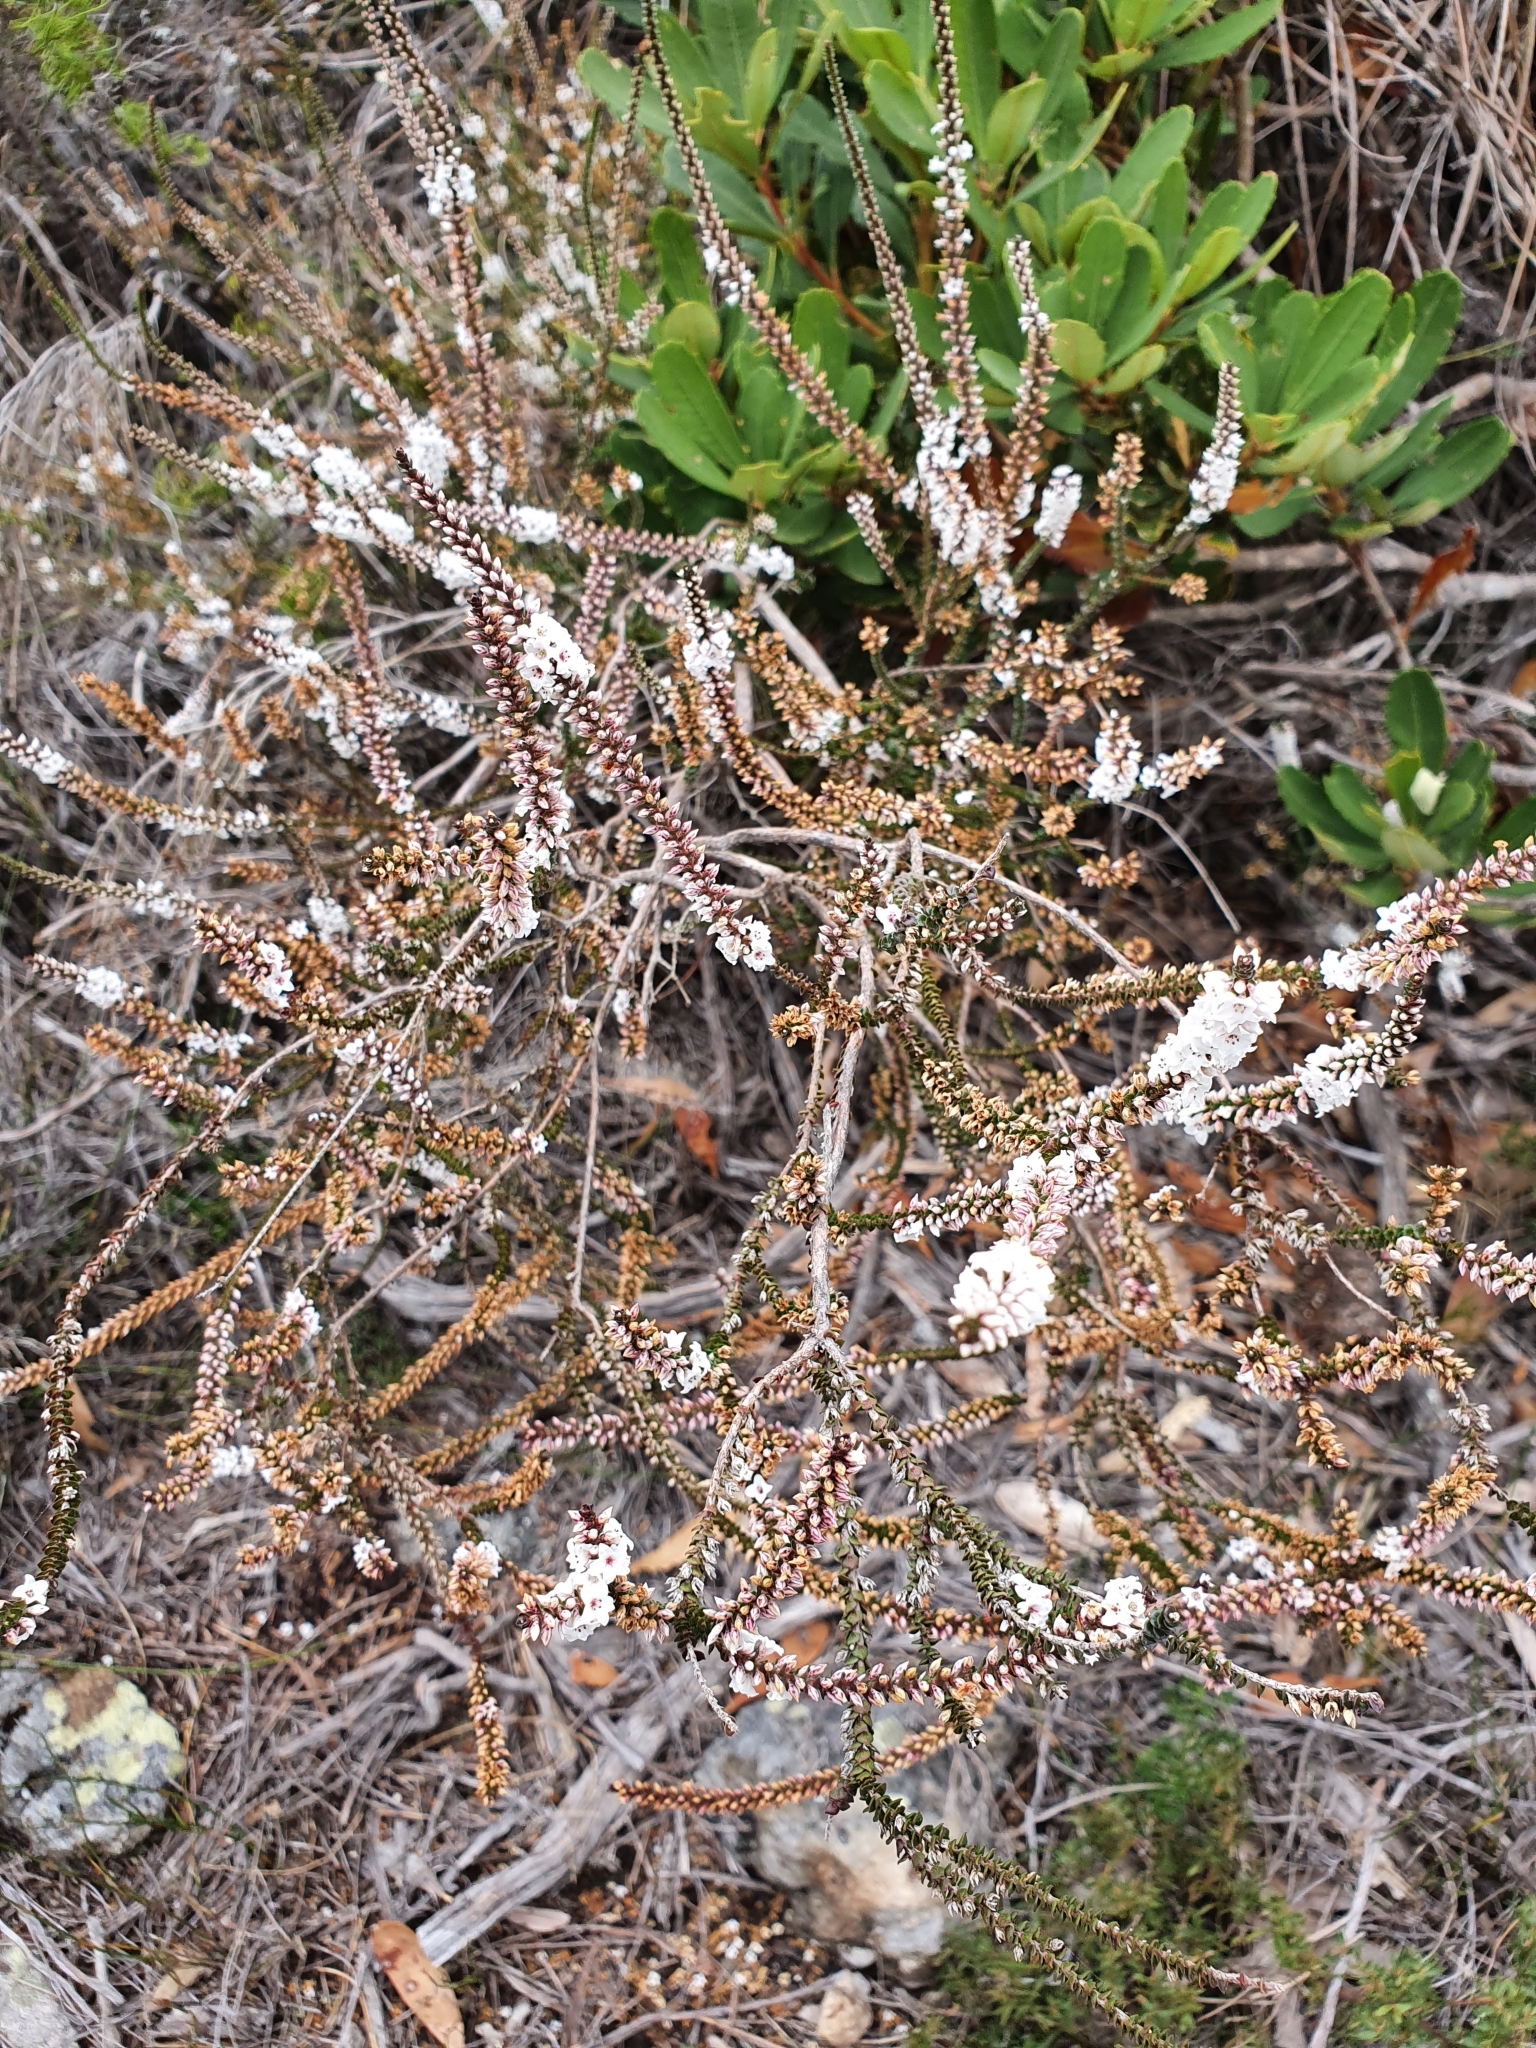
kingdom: Plantae
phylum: Tracheophyta
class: Magnoliopsida
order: Ericales
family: Ericaceae
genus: Epacris
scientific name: Epacris microphylla
